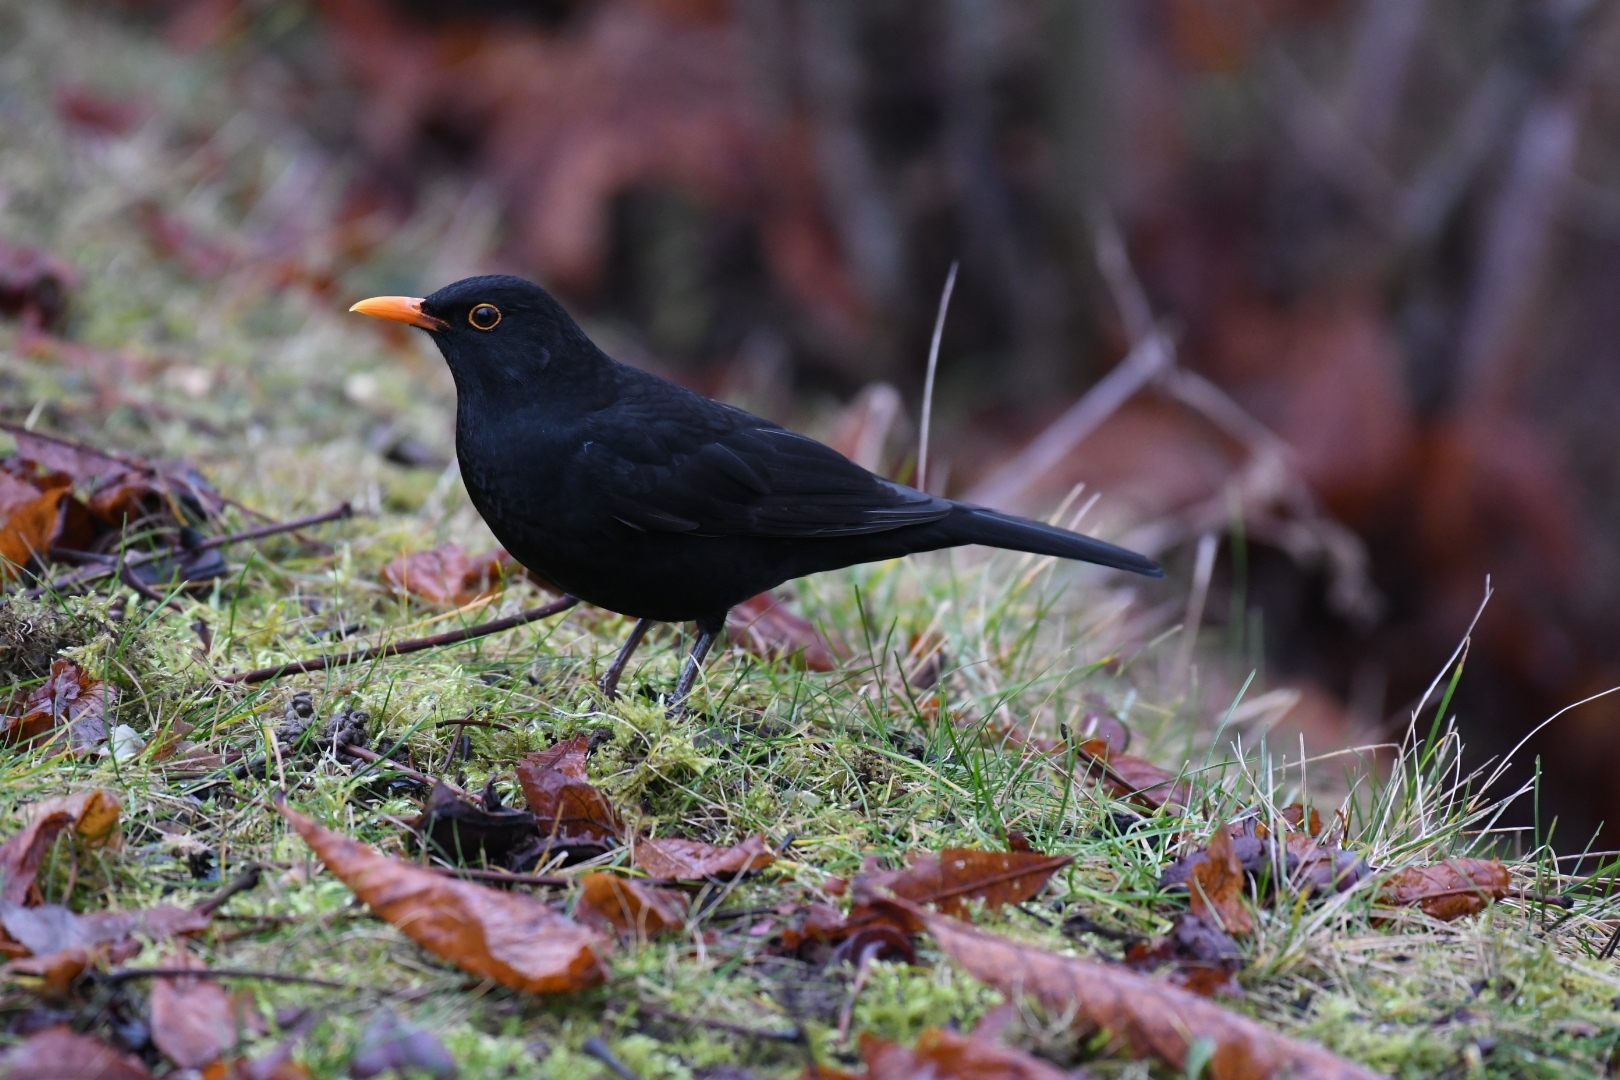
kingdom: Animalia
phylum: Chordata
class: Aves
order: Passeriformes
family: Turdidae
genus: Turdus
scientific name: Turdus merula
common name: Common blackbird
